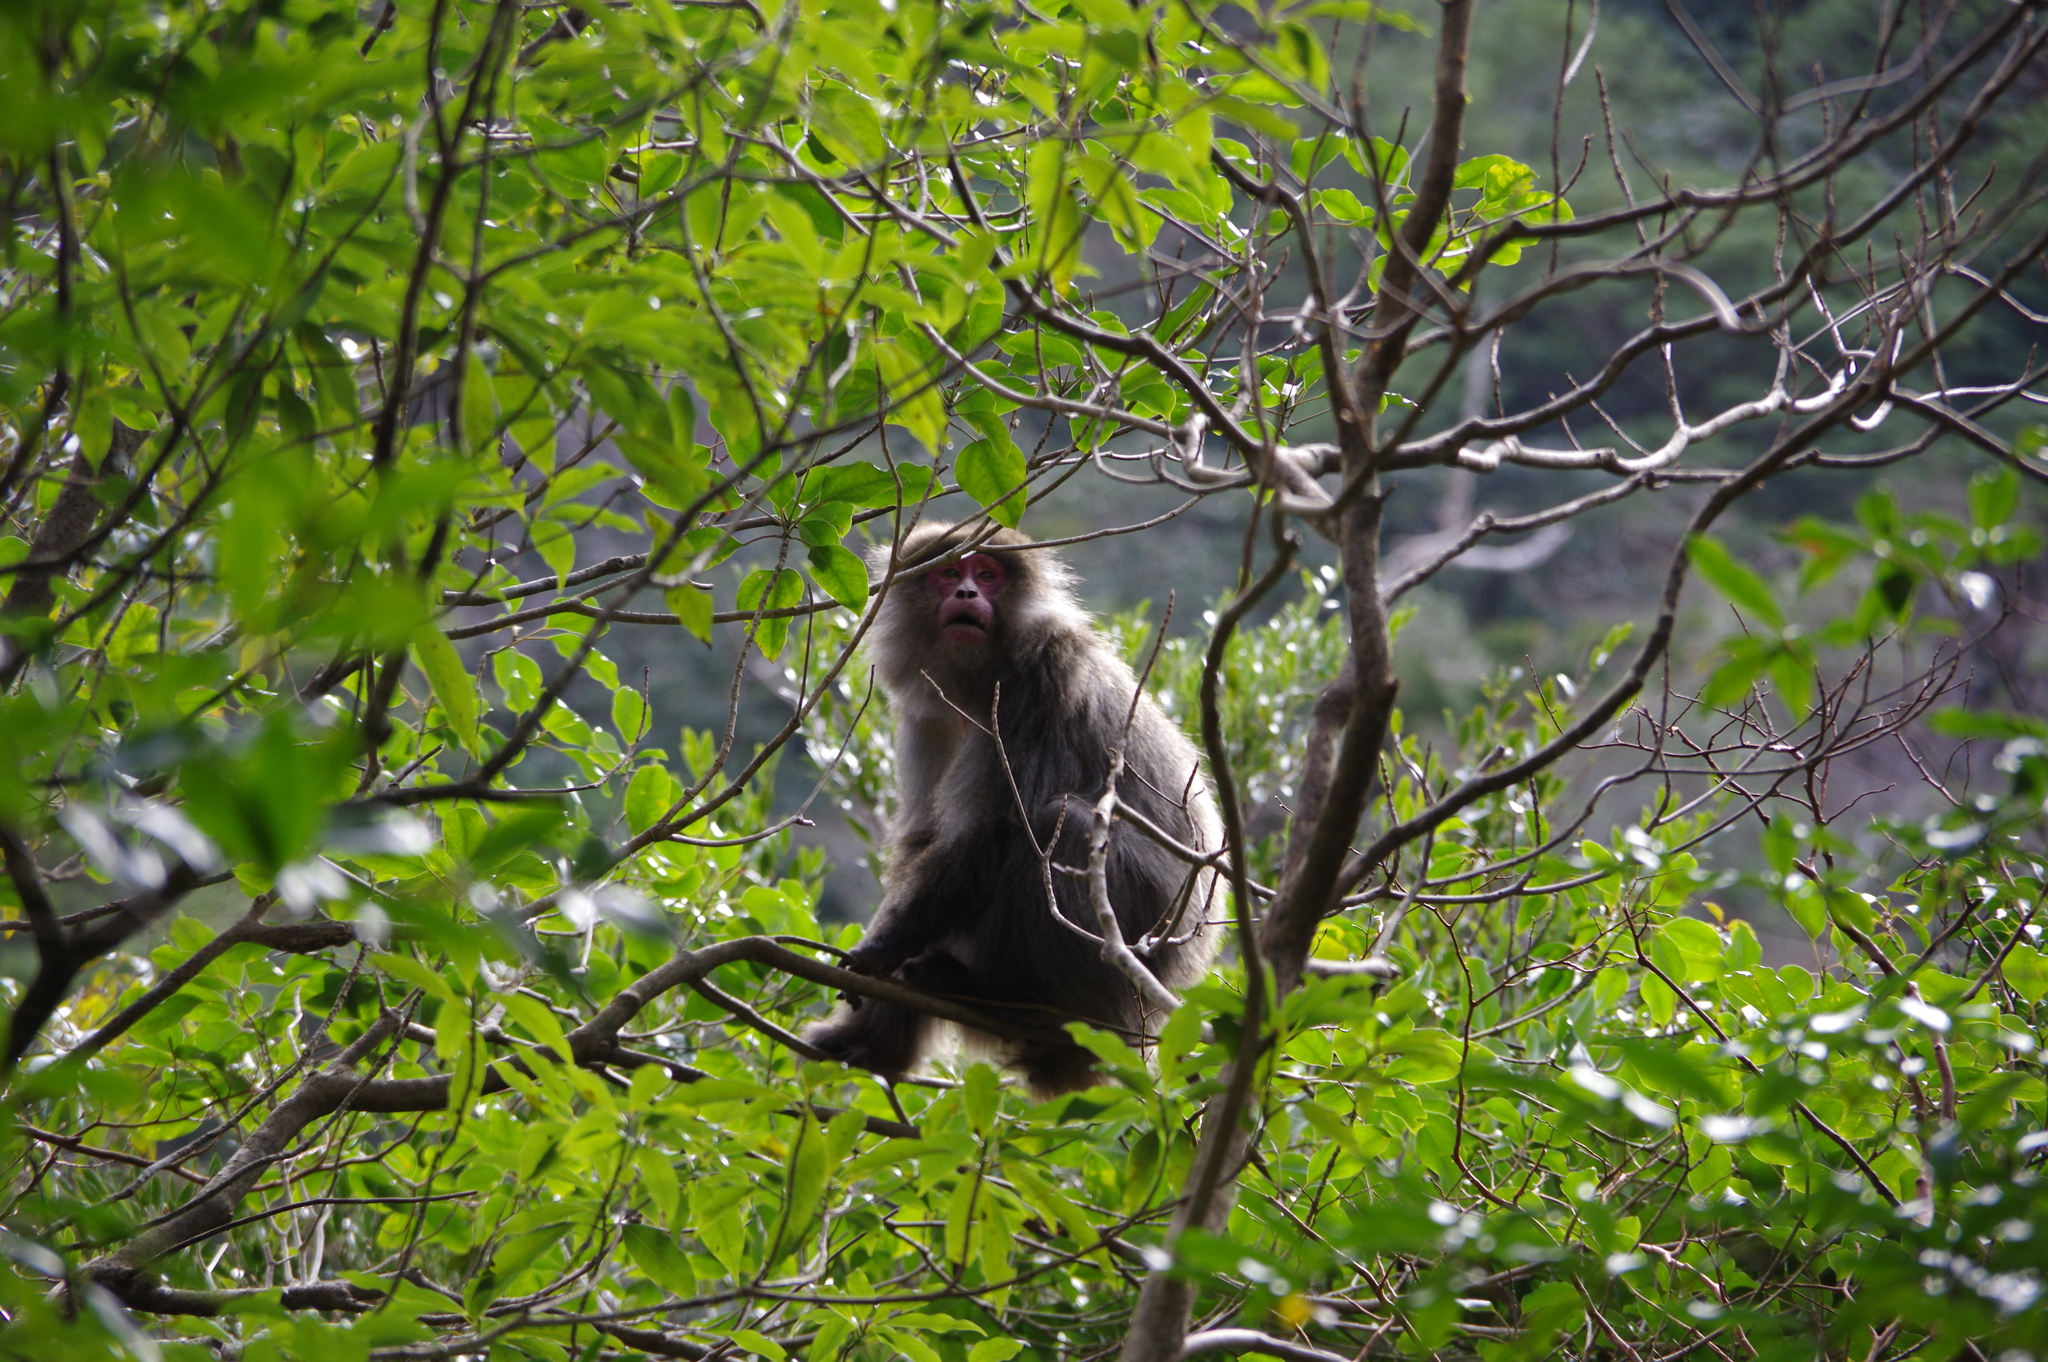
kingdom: Animalia
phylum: Chordata
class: Mammalia
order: Primates
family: Cercopithecidae
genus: Macaca
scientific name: Macaca fuscata
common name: Japanese macaque
